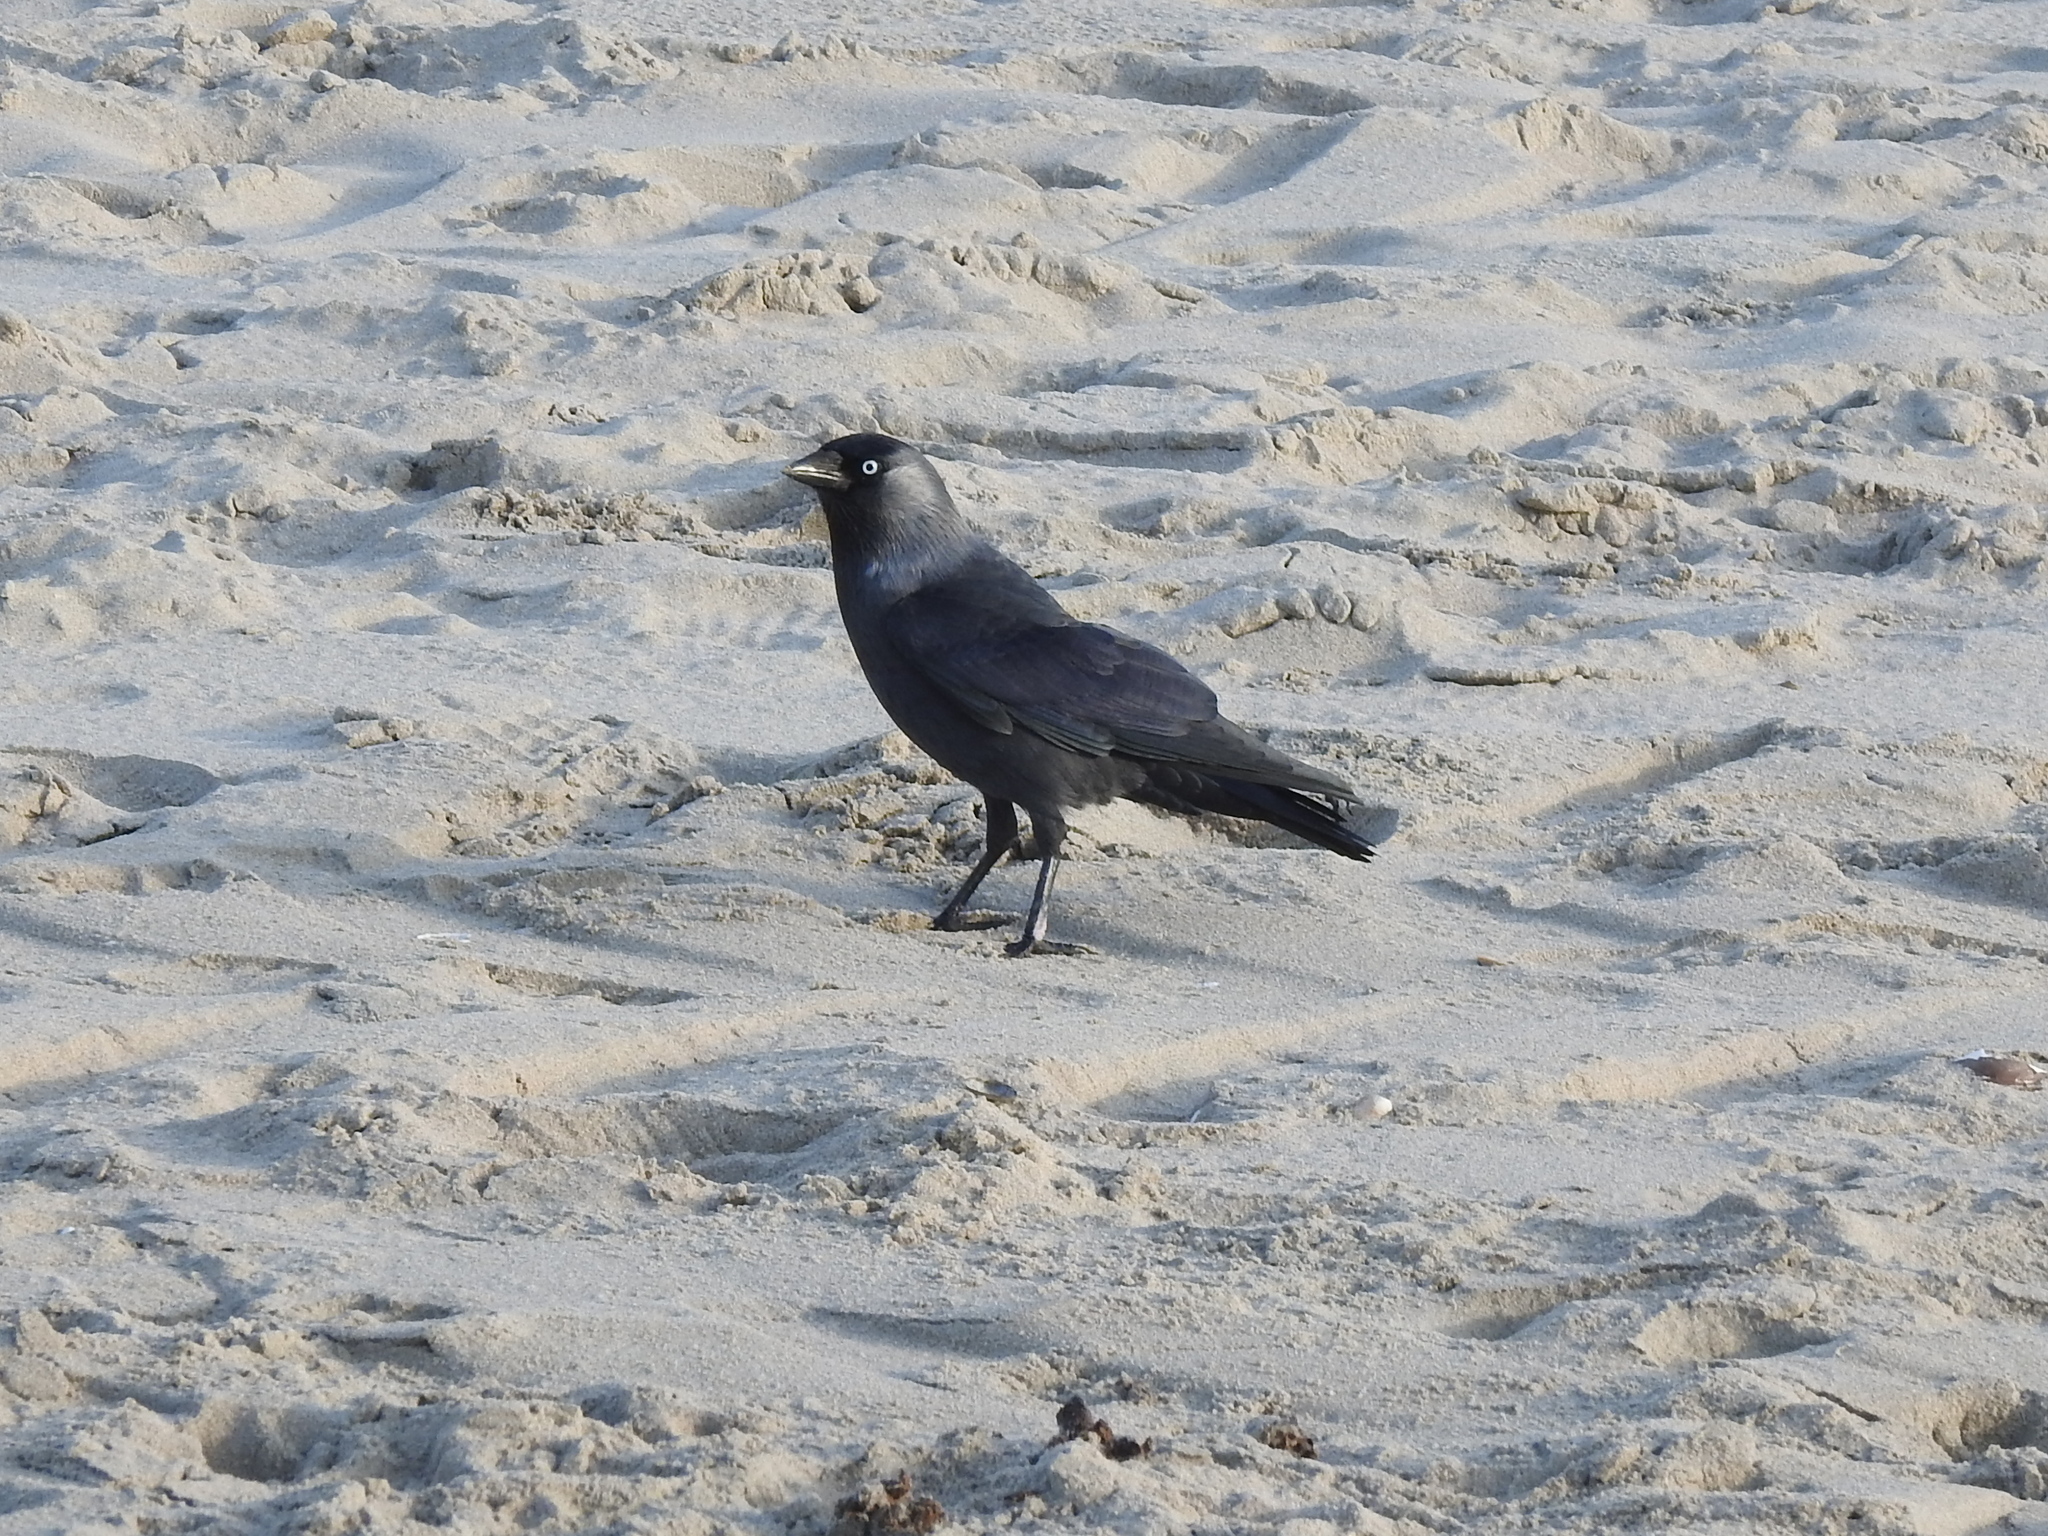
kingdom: Animalia
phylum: Chordata
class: Aves
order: Passeriformes
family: Corvidae
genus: Coloeus
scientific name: Coloeus monedula
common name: Western jackdaw
